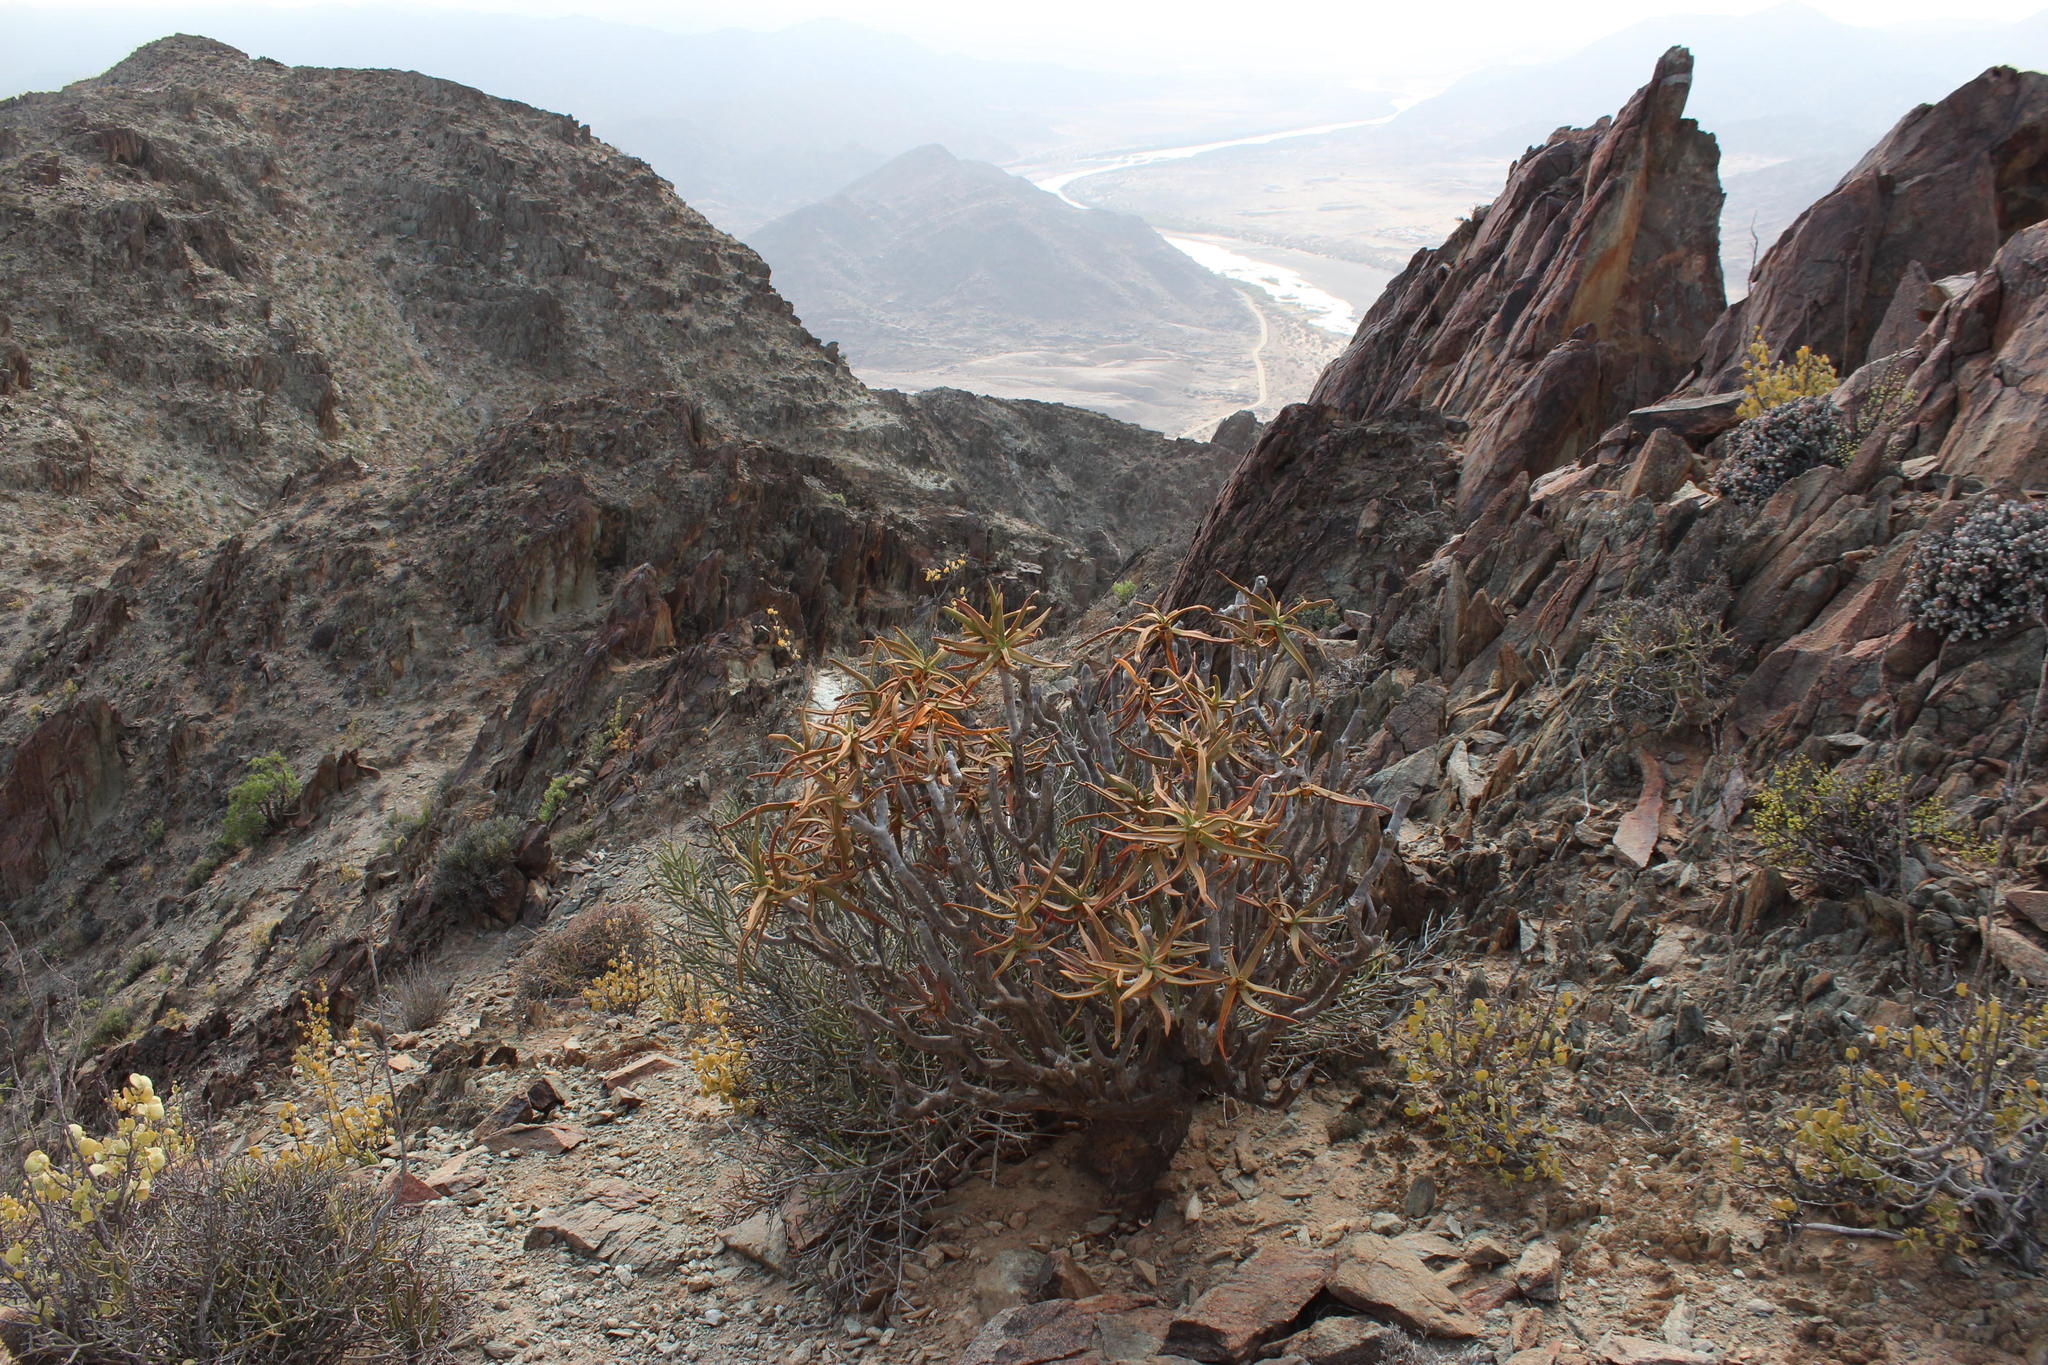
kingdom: Plantae
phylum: Tracheophyta
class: Liliopsida
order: Asparagales
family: Asphodelaceae
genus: Aloidendron
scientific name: Aloidendron ramosissimum
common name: Bush quiver tree
